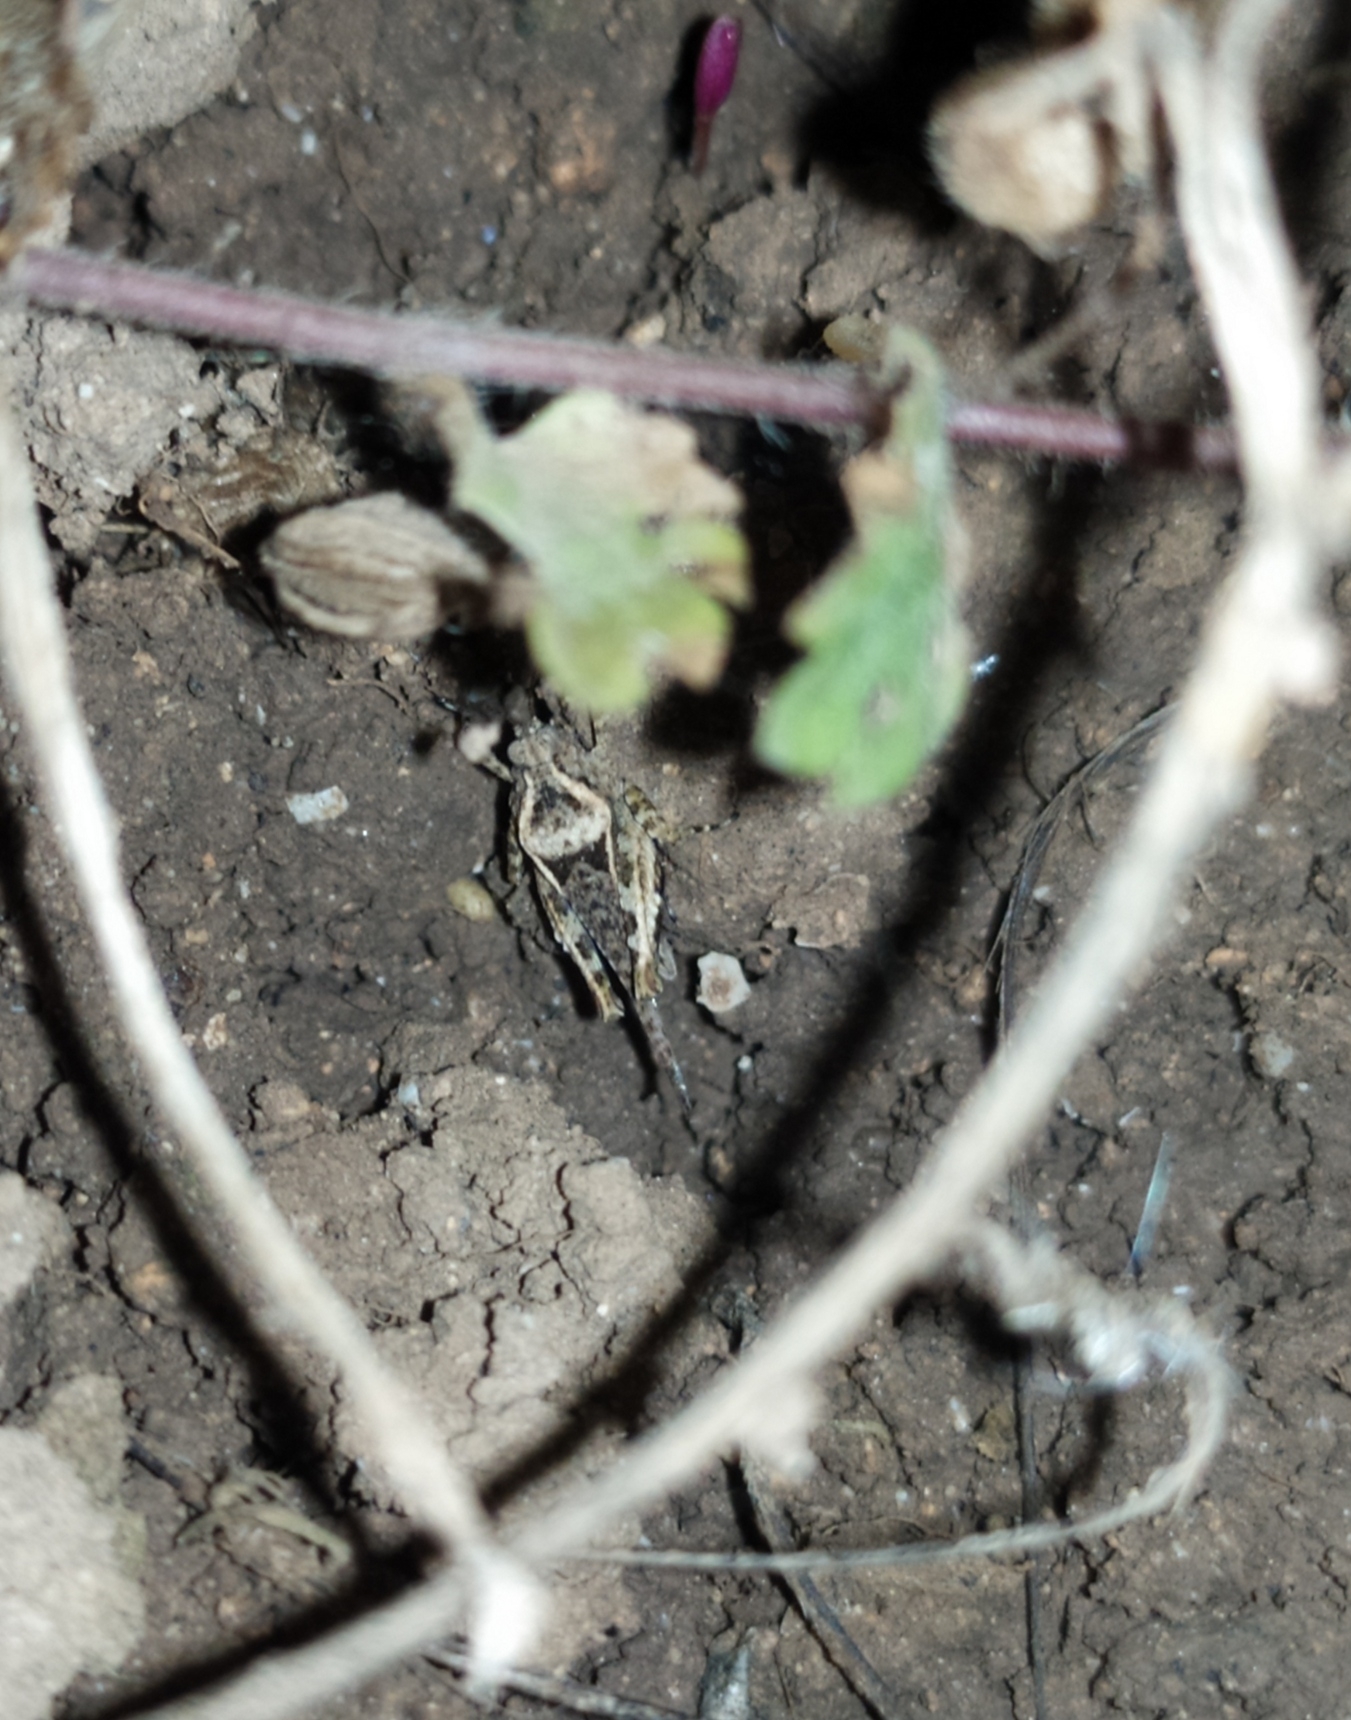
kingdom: Animalia
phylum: Arthropoda
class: Insecta
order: Orthoptera
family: Tetrigidae
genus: Paratettix
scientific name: Paratettix meridionalis
